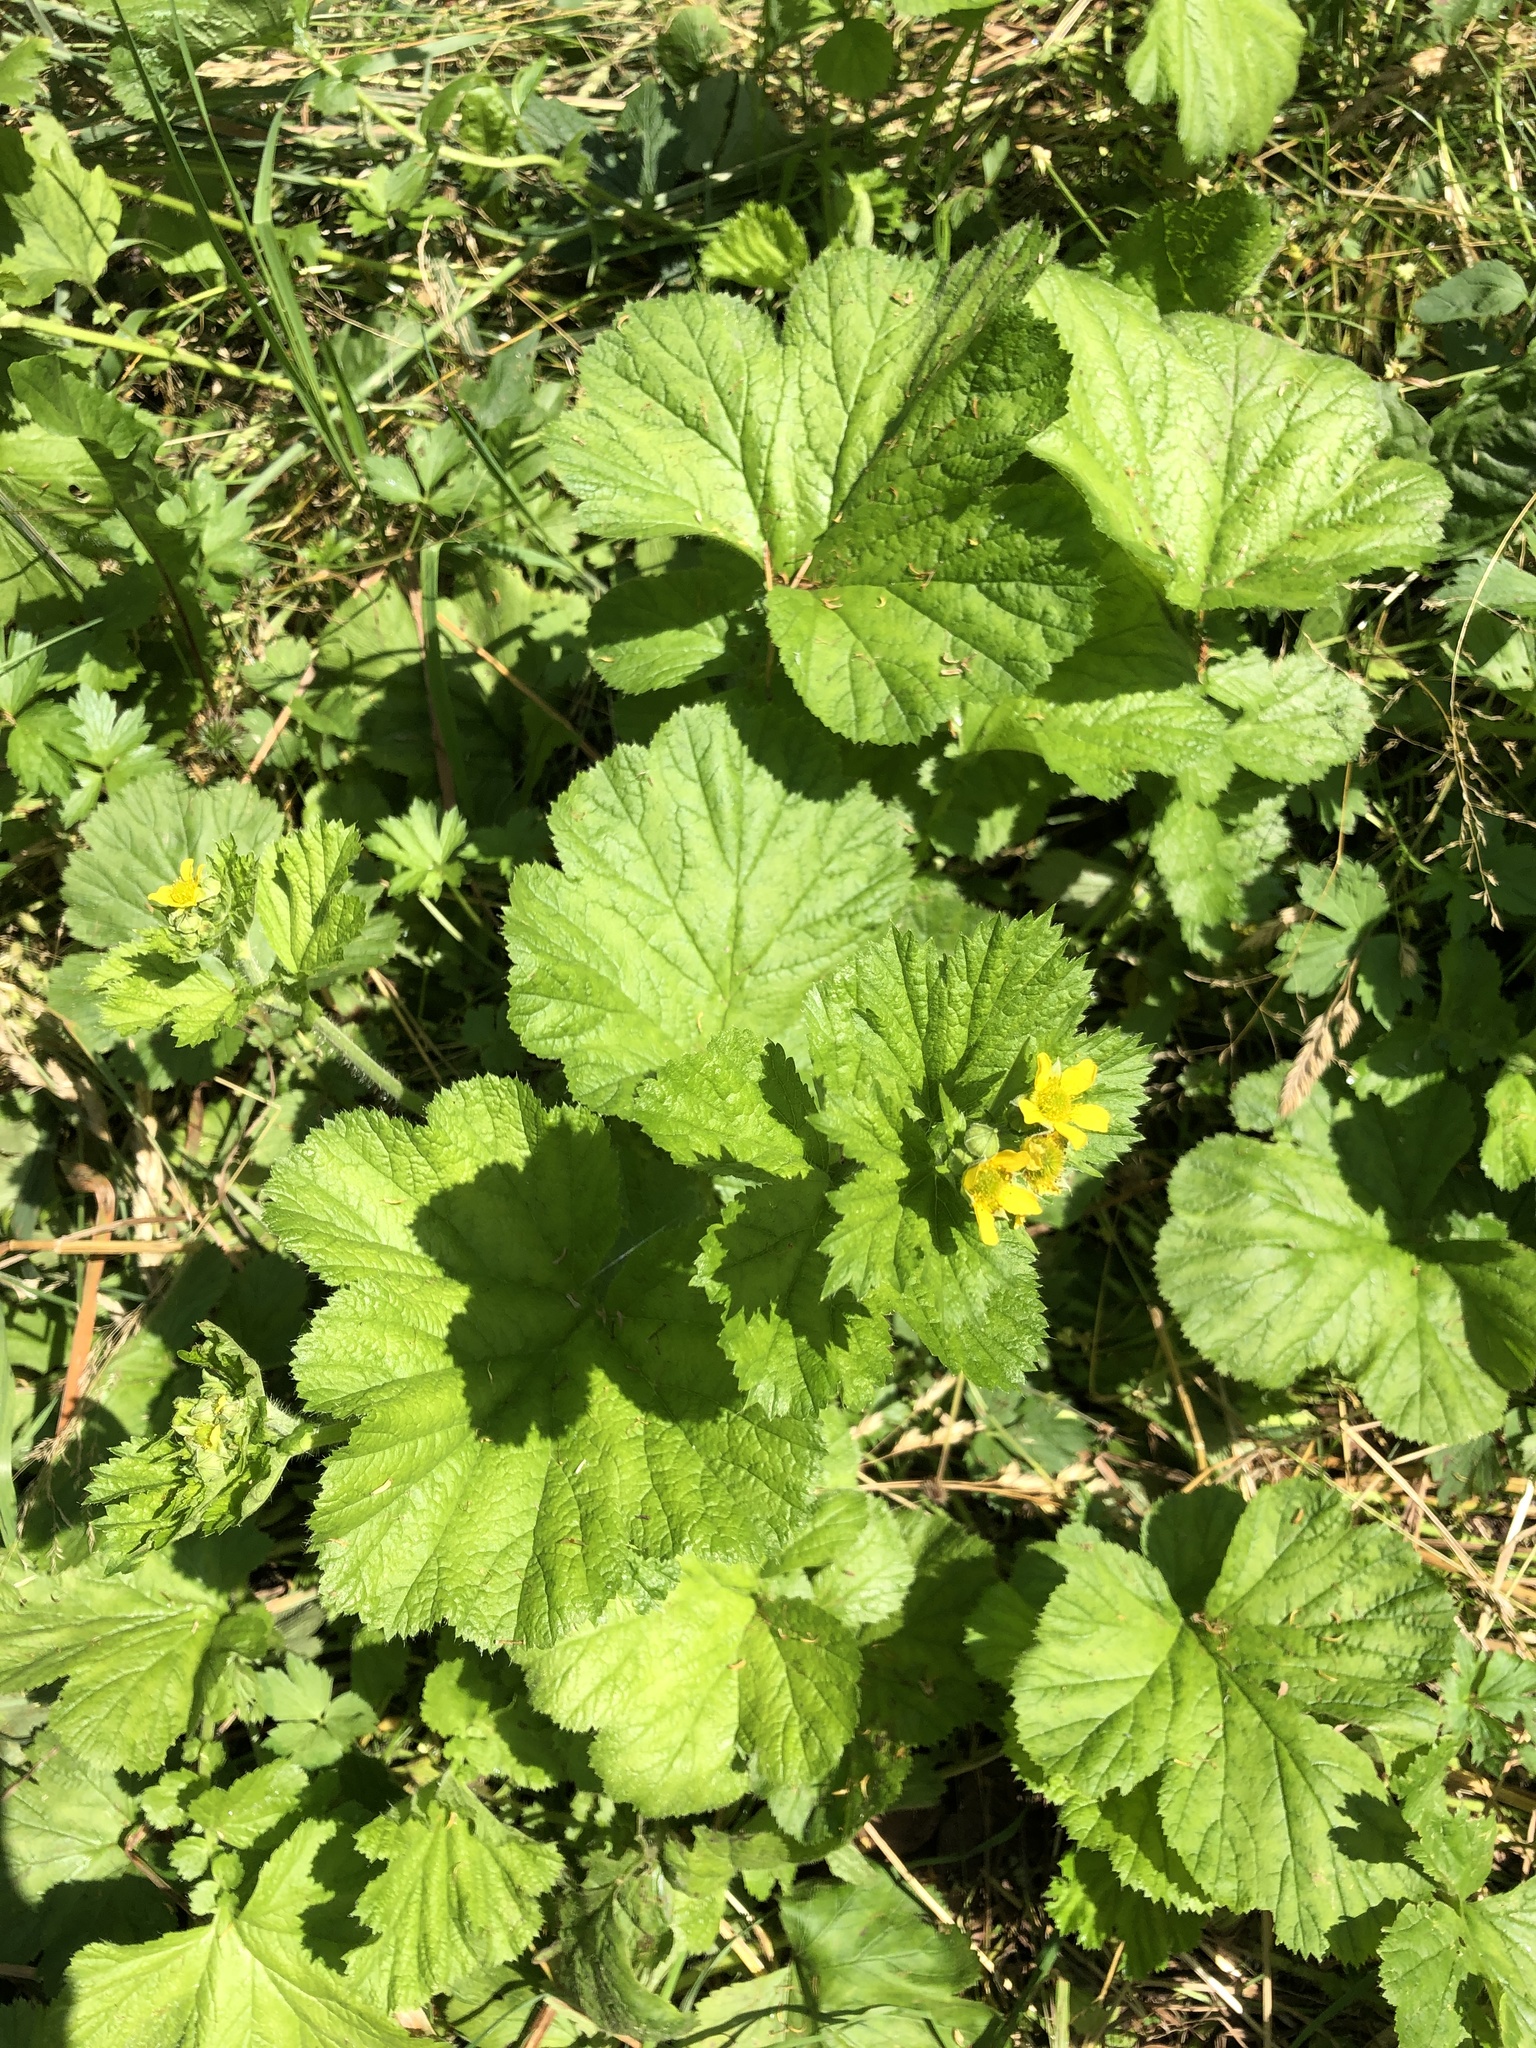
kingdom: Plantae
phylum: Tracheophyta
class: Magnoliopsida
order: Rosales
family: Rosaceae
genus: Geum
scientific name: Geum macrophyllum
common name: Large-leaved avens
